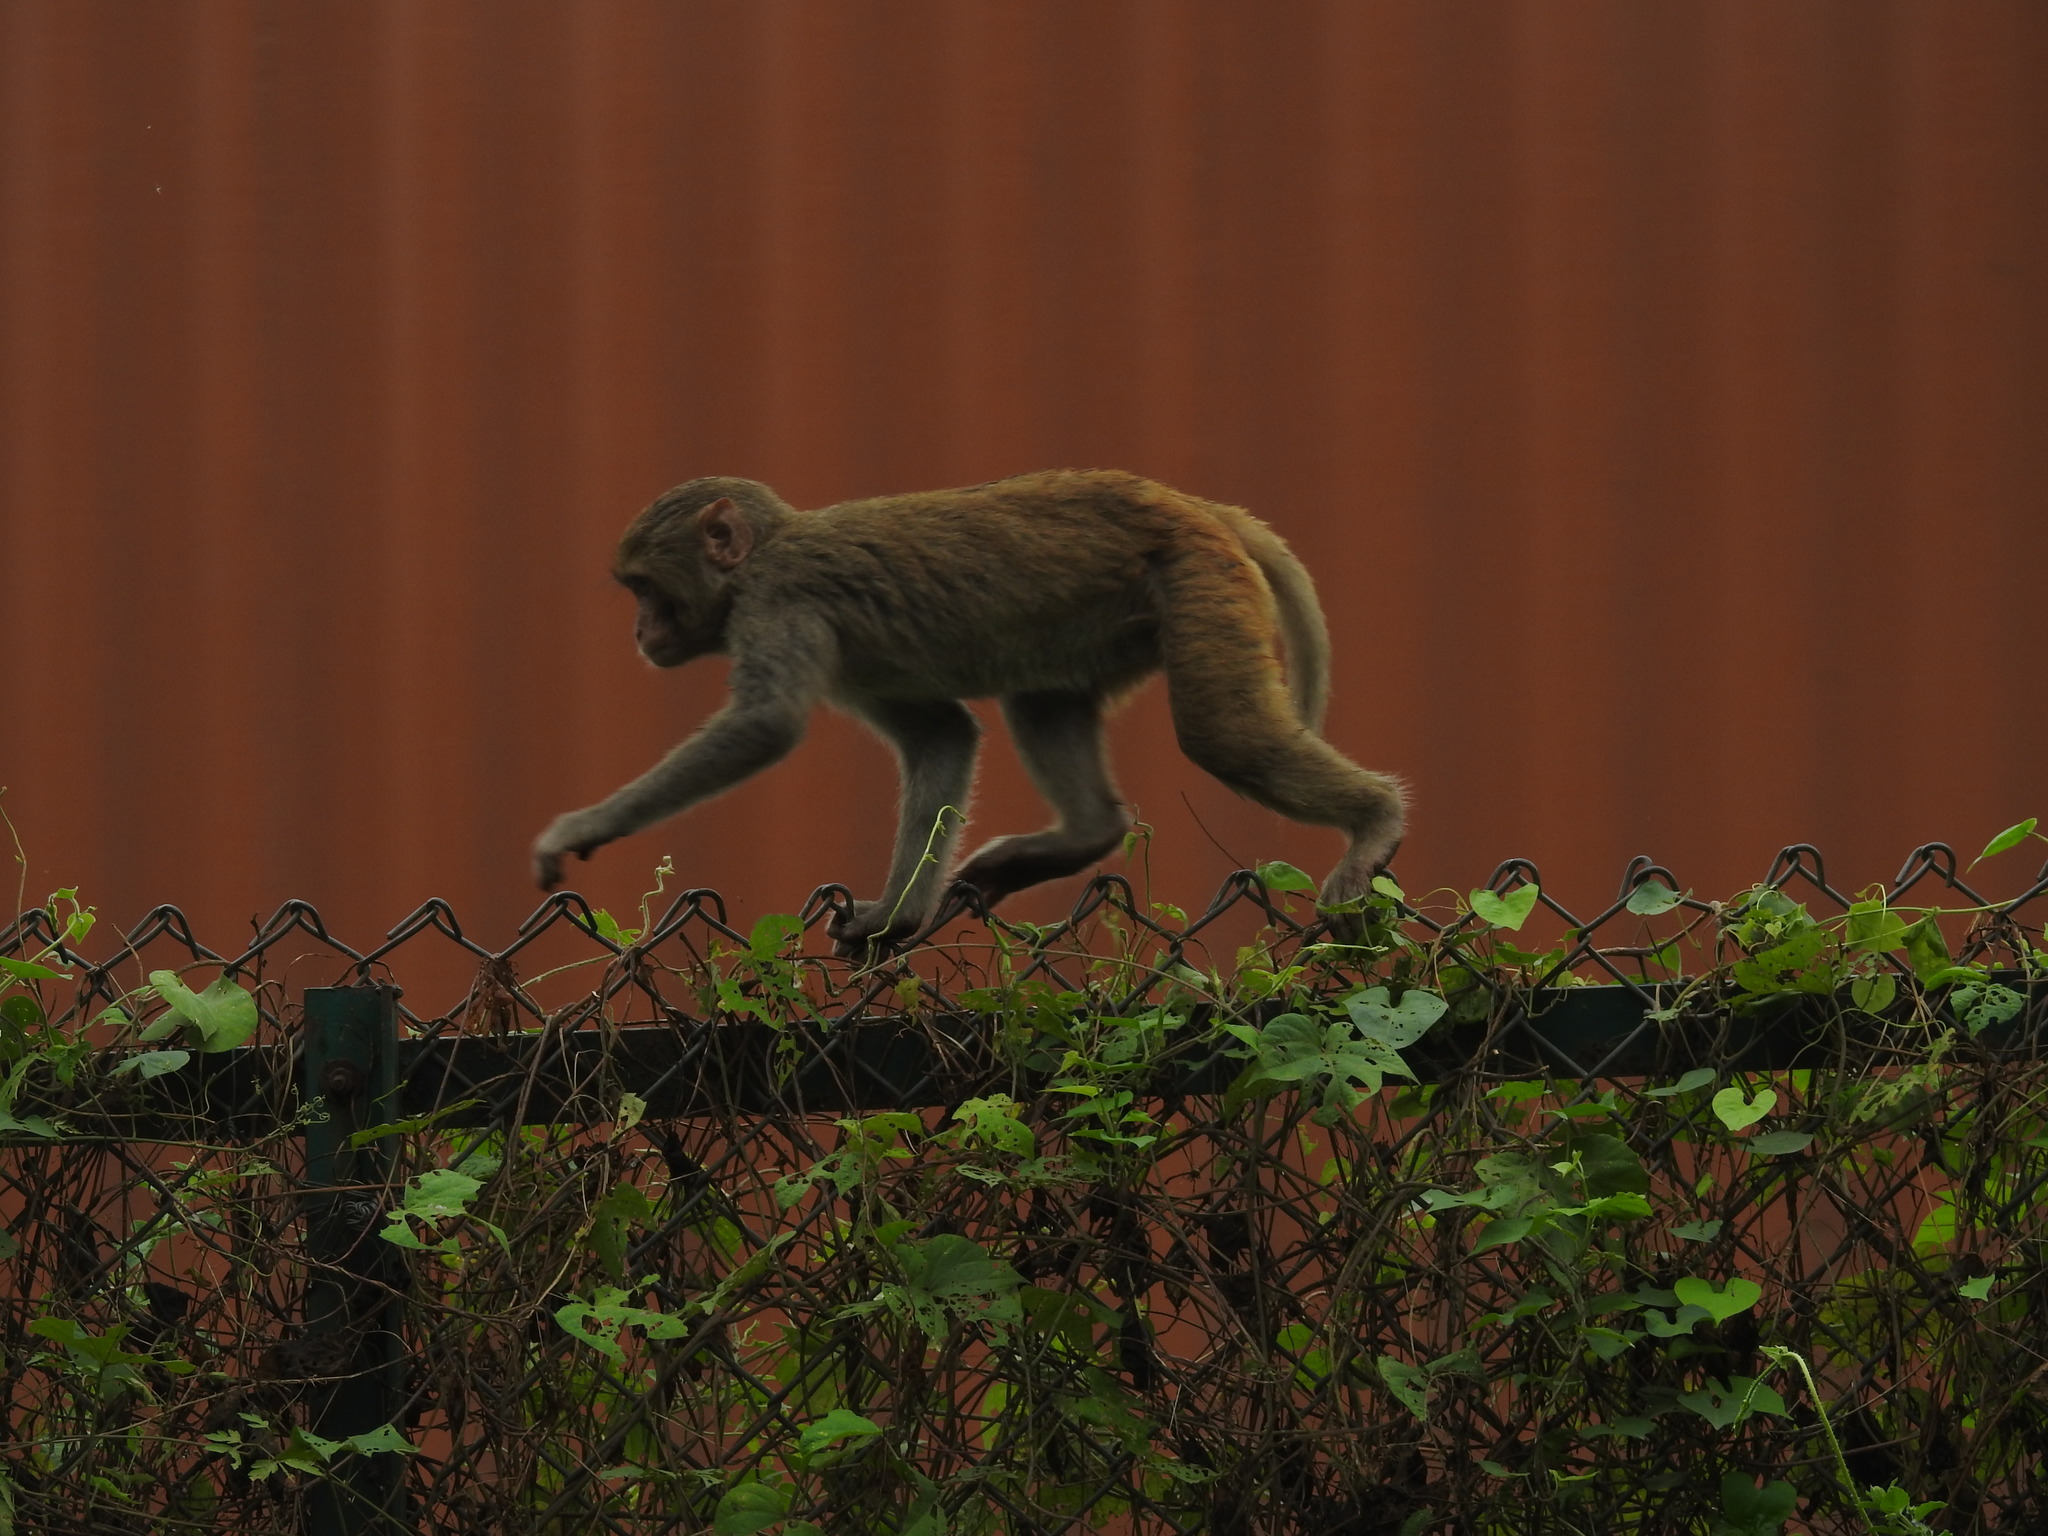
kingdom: Animalia
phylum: Chordata
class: Mammalia
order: Primates
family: Cercopithecidae
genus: Macaca
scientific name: Macaca mulatta
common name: Rhesus monkey
